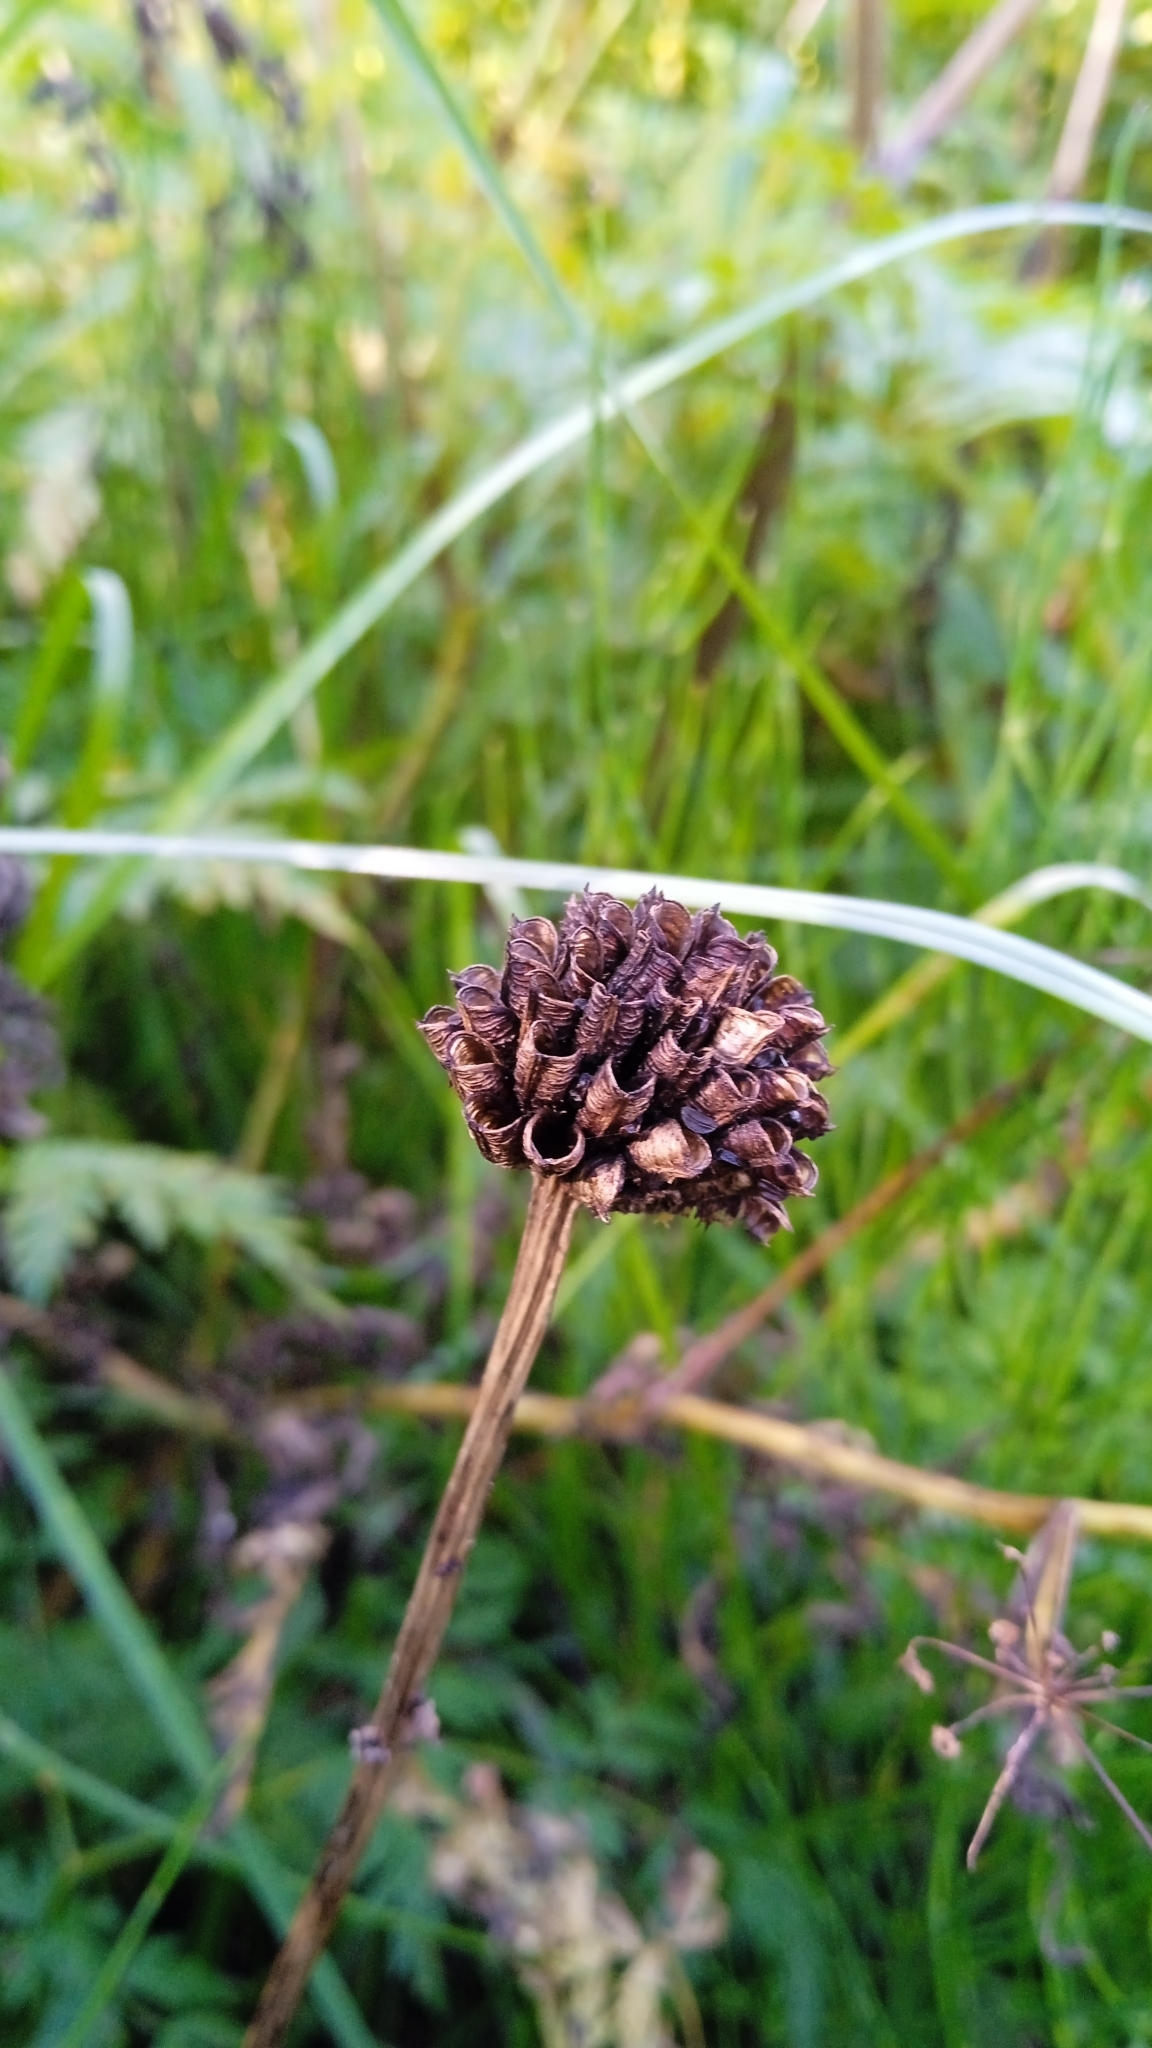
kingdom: Plantae
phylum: Tracheophyta
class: Magnoliopsida
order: Ranunculales
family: Ranunculaceae
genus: Trollius
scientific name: Trollius europaeus
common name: European globeflower
